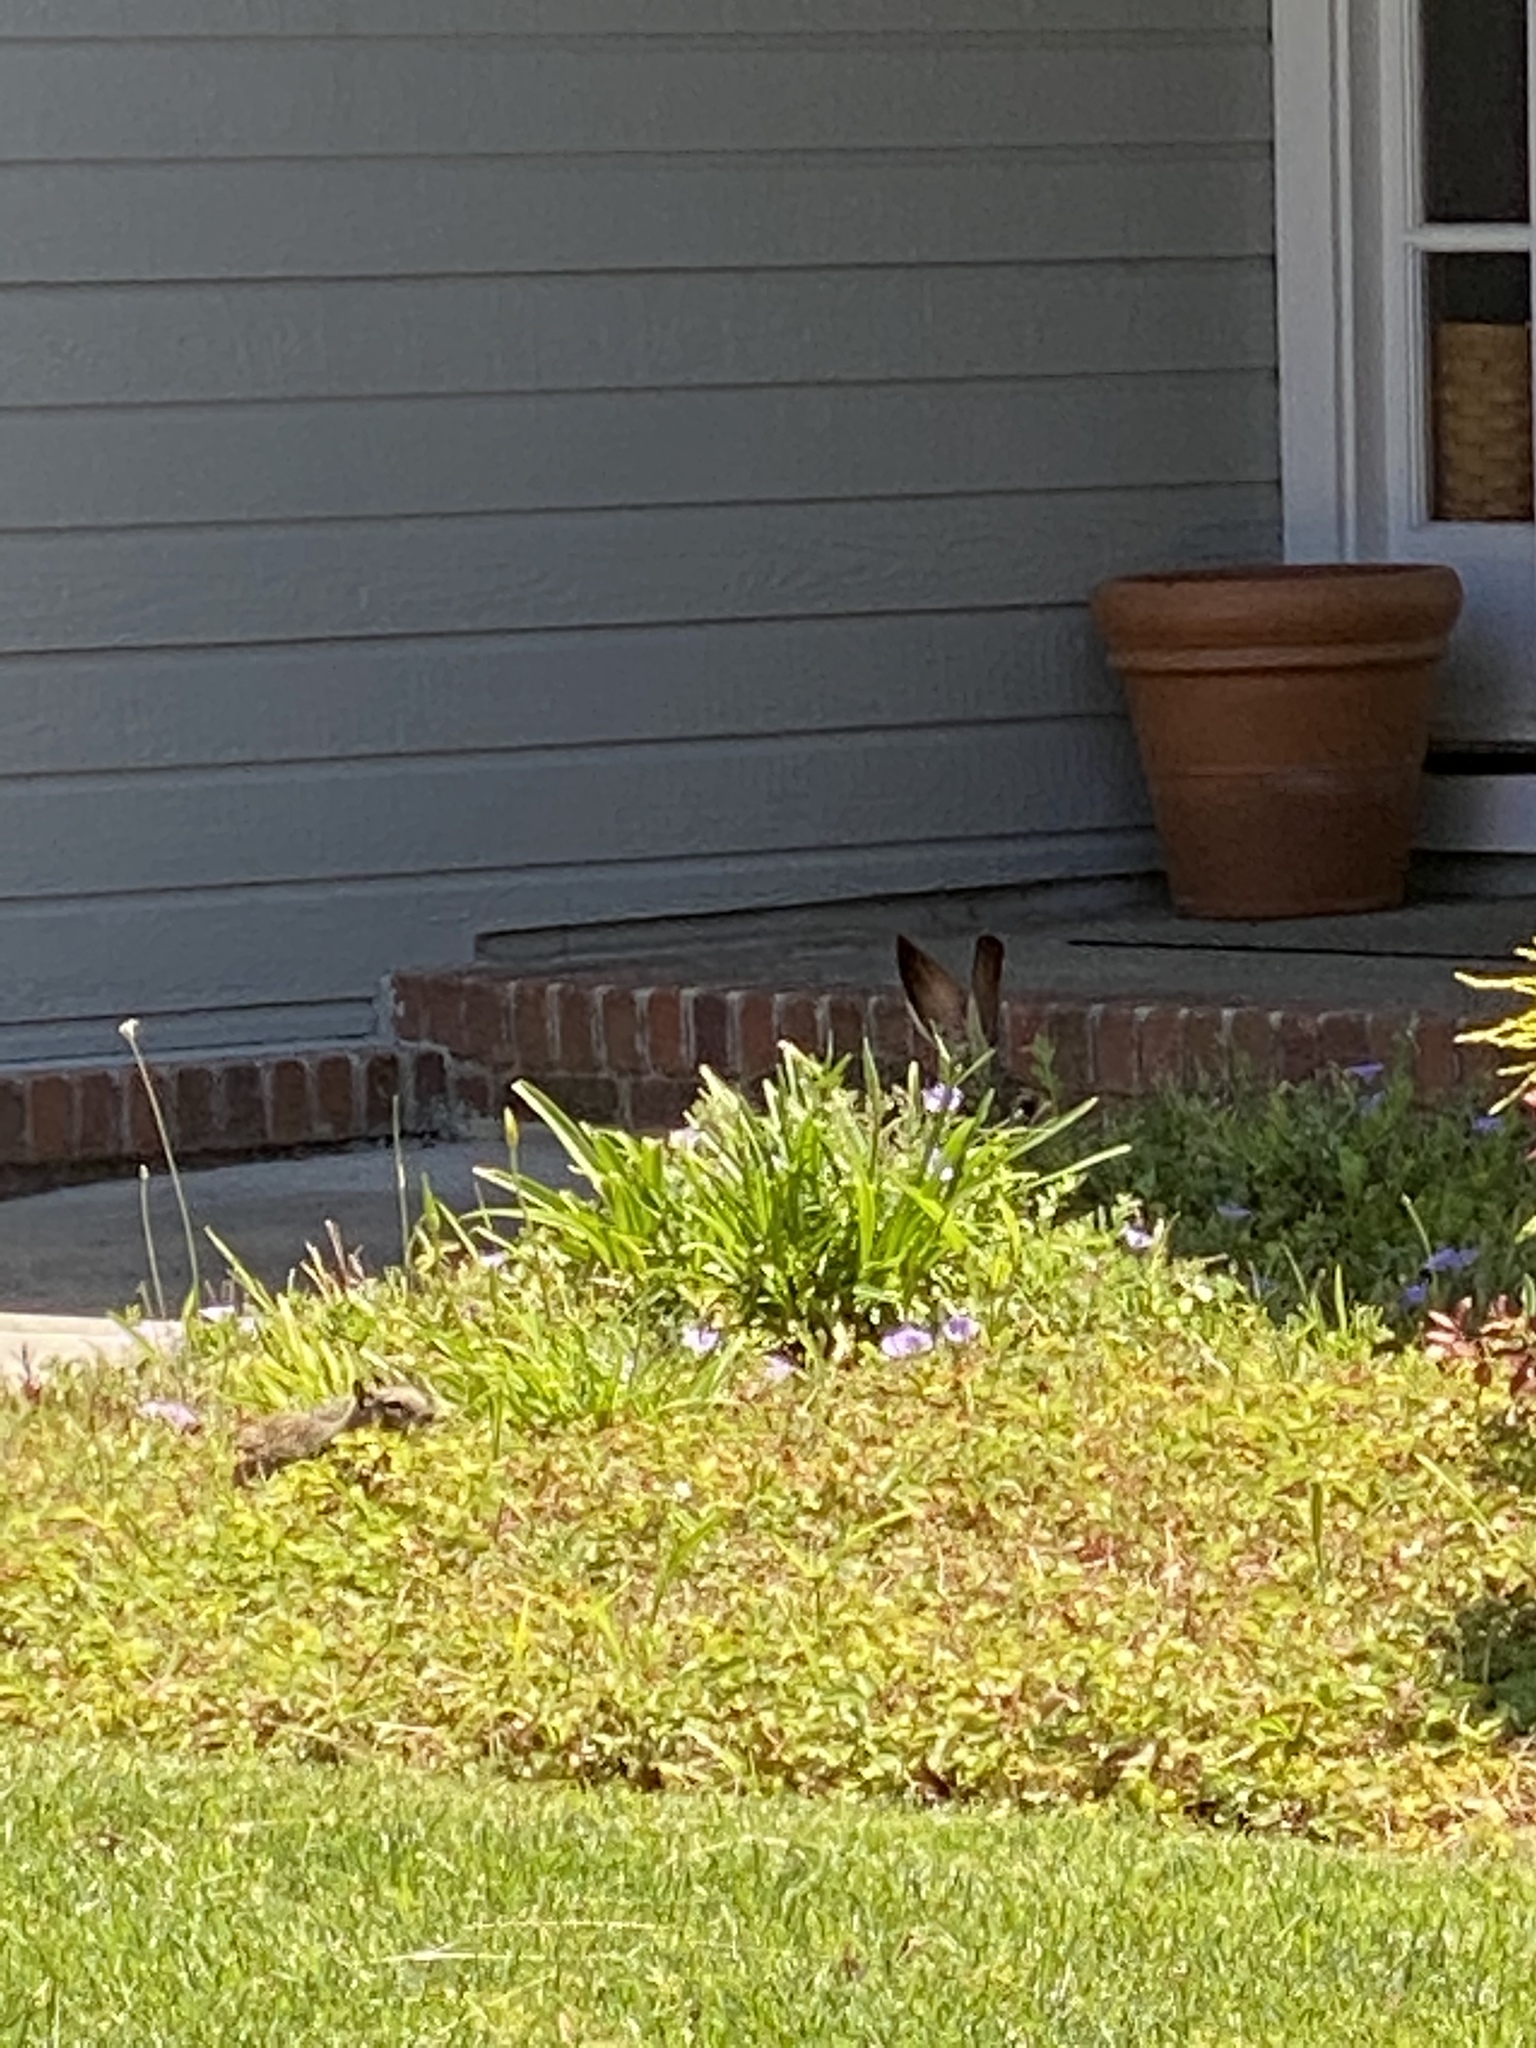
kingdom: Animalia
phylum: Chordata
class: Mammalia
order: Lagomorpha
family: Leporidae
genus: Lepus
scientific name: Lepus californicus
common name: Black-tailed jackrabbit
